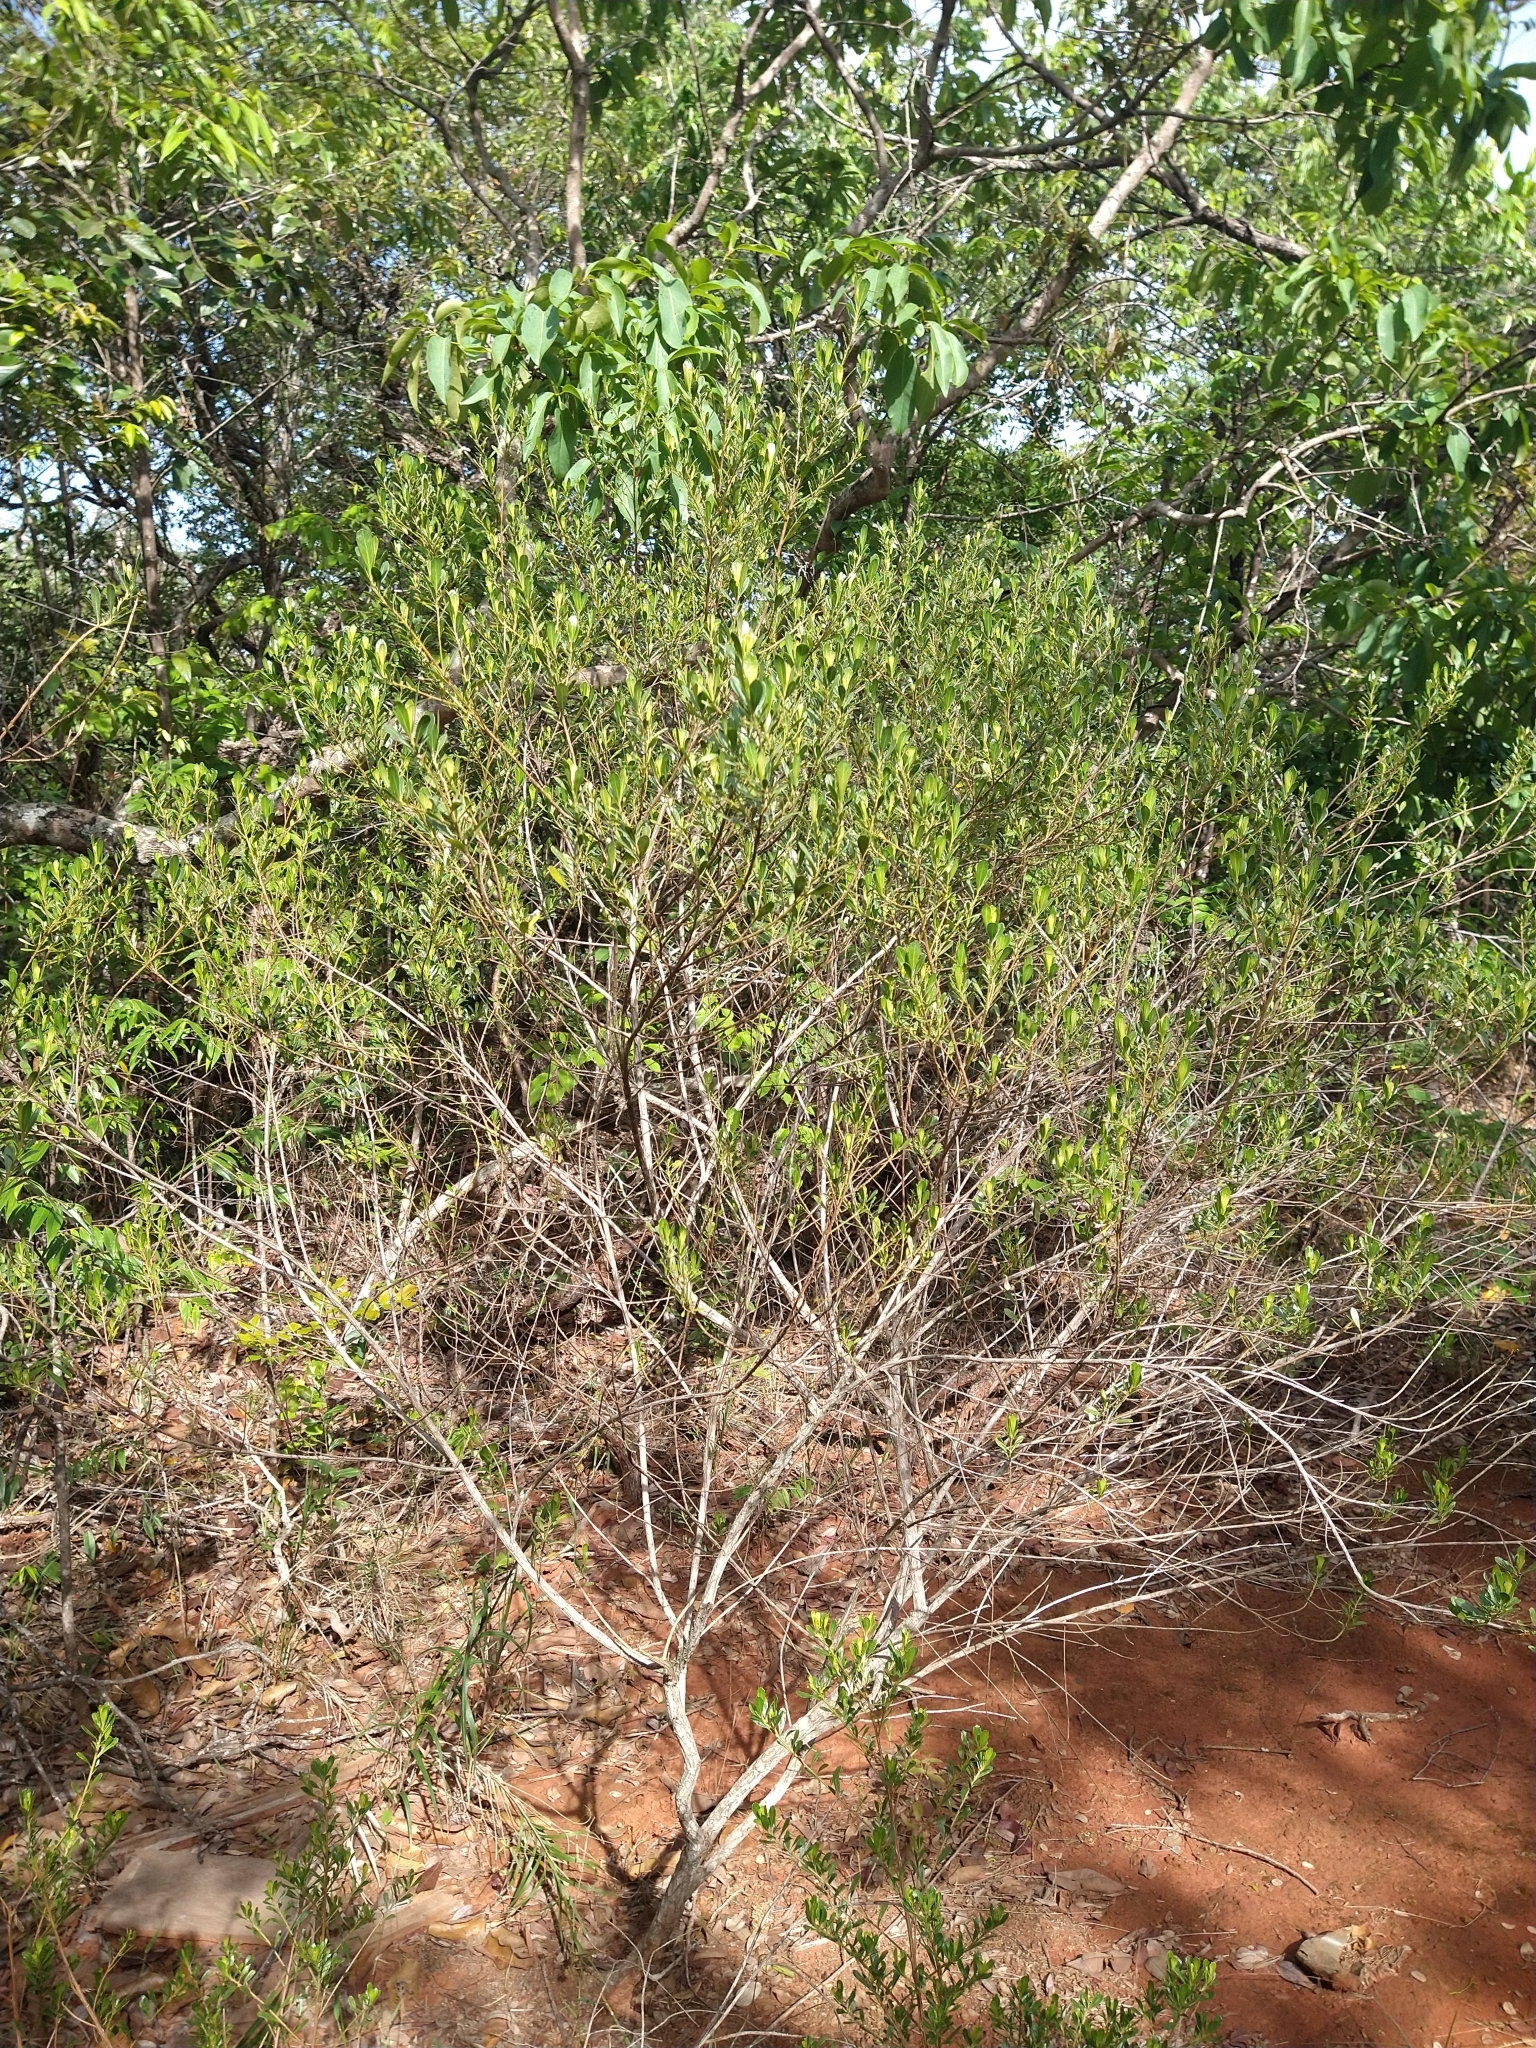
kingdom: Plantae
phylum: Tracheophyta
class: Magnoliopsida
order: Asterales
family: Asteraceae
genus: Baccharis
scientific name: Baccharis retusa
